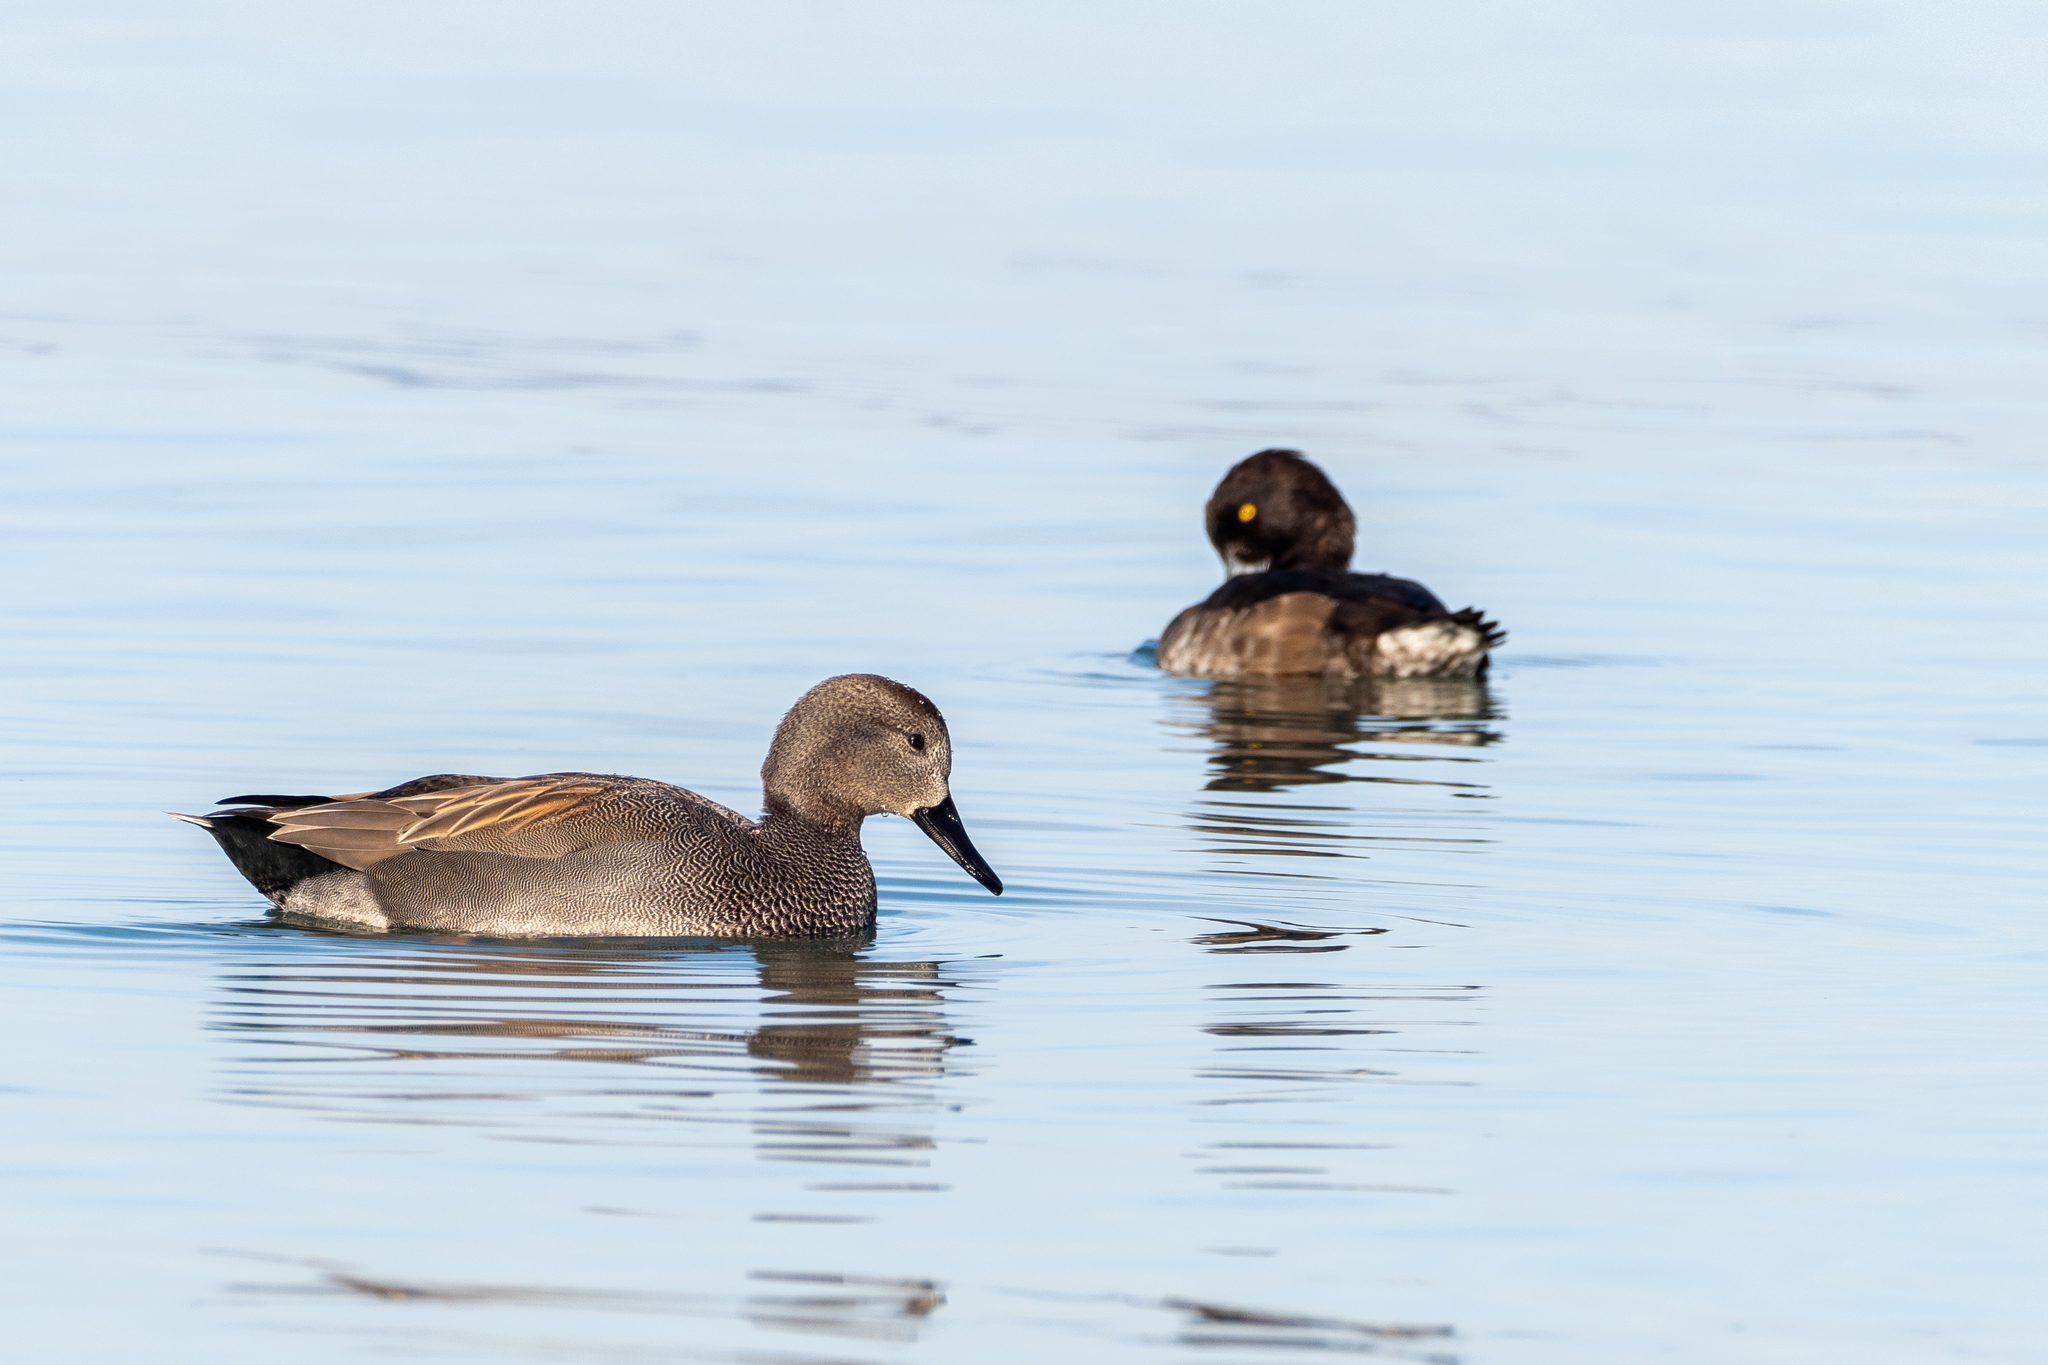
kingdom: Animalia
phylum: Chordata
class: Aves
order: Anseriformes
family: Anatidae
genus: Mareca
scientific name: Mareca strepera
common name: Gadwall
